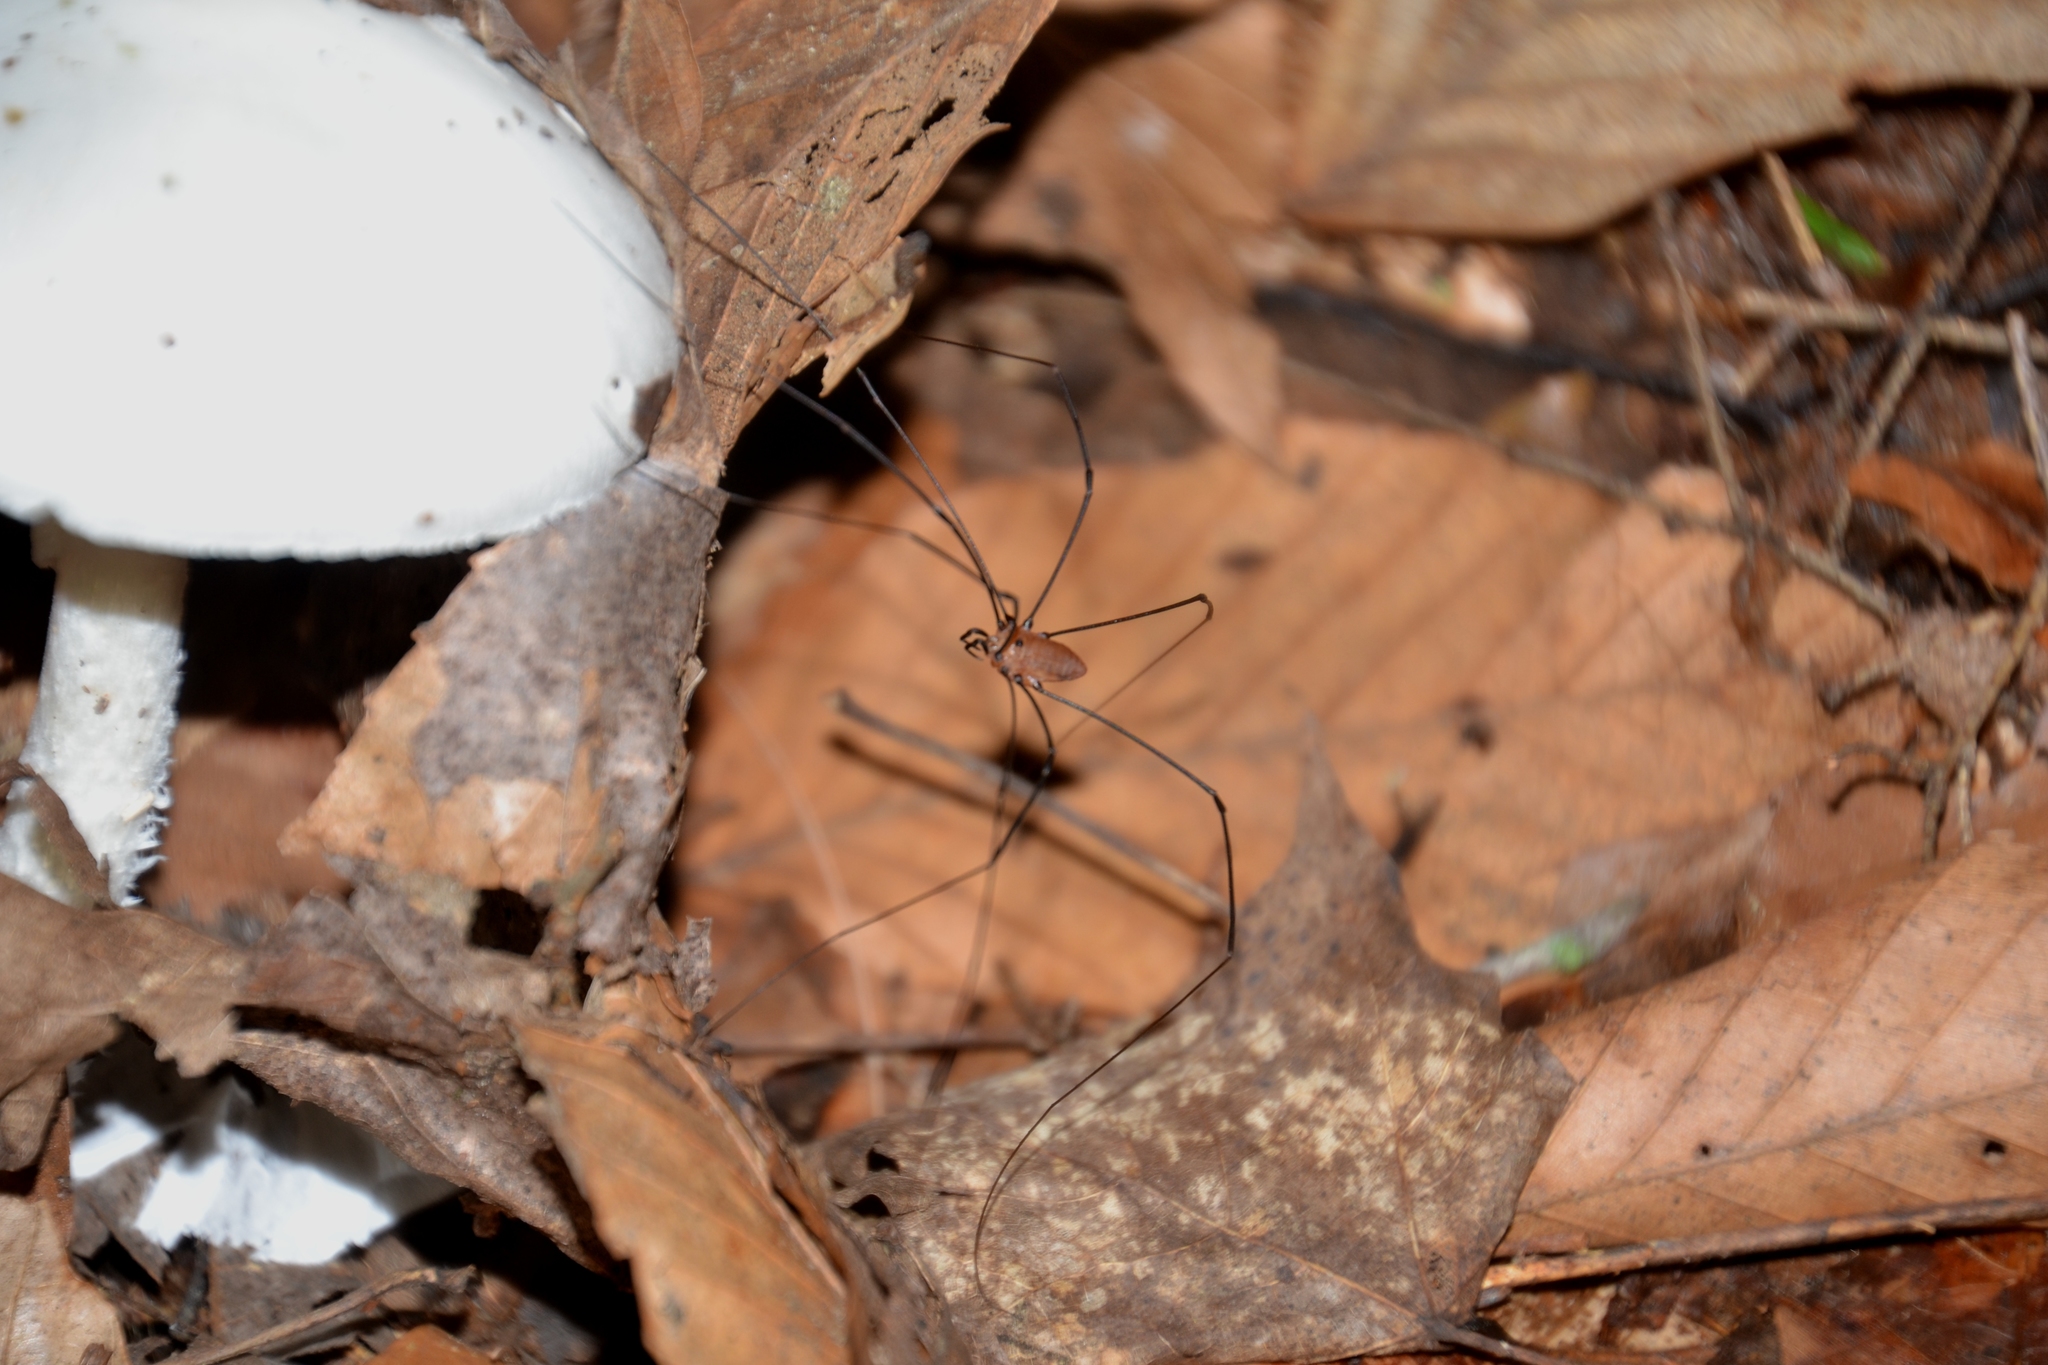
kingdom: Animalia
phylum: Arthropoda
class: Arachnida
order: Opiliones
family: Sclerosomatidae
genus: Leiobunum
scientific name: Leiobunum nigropalpi
